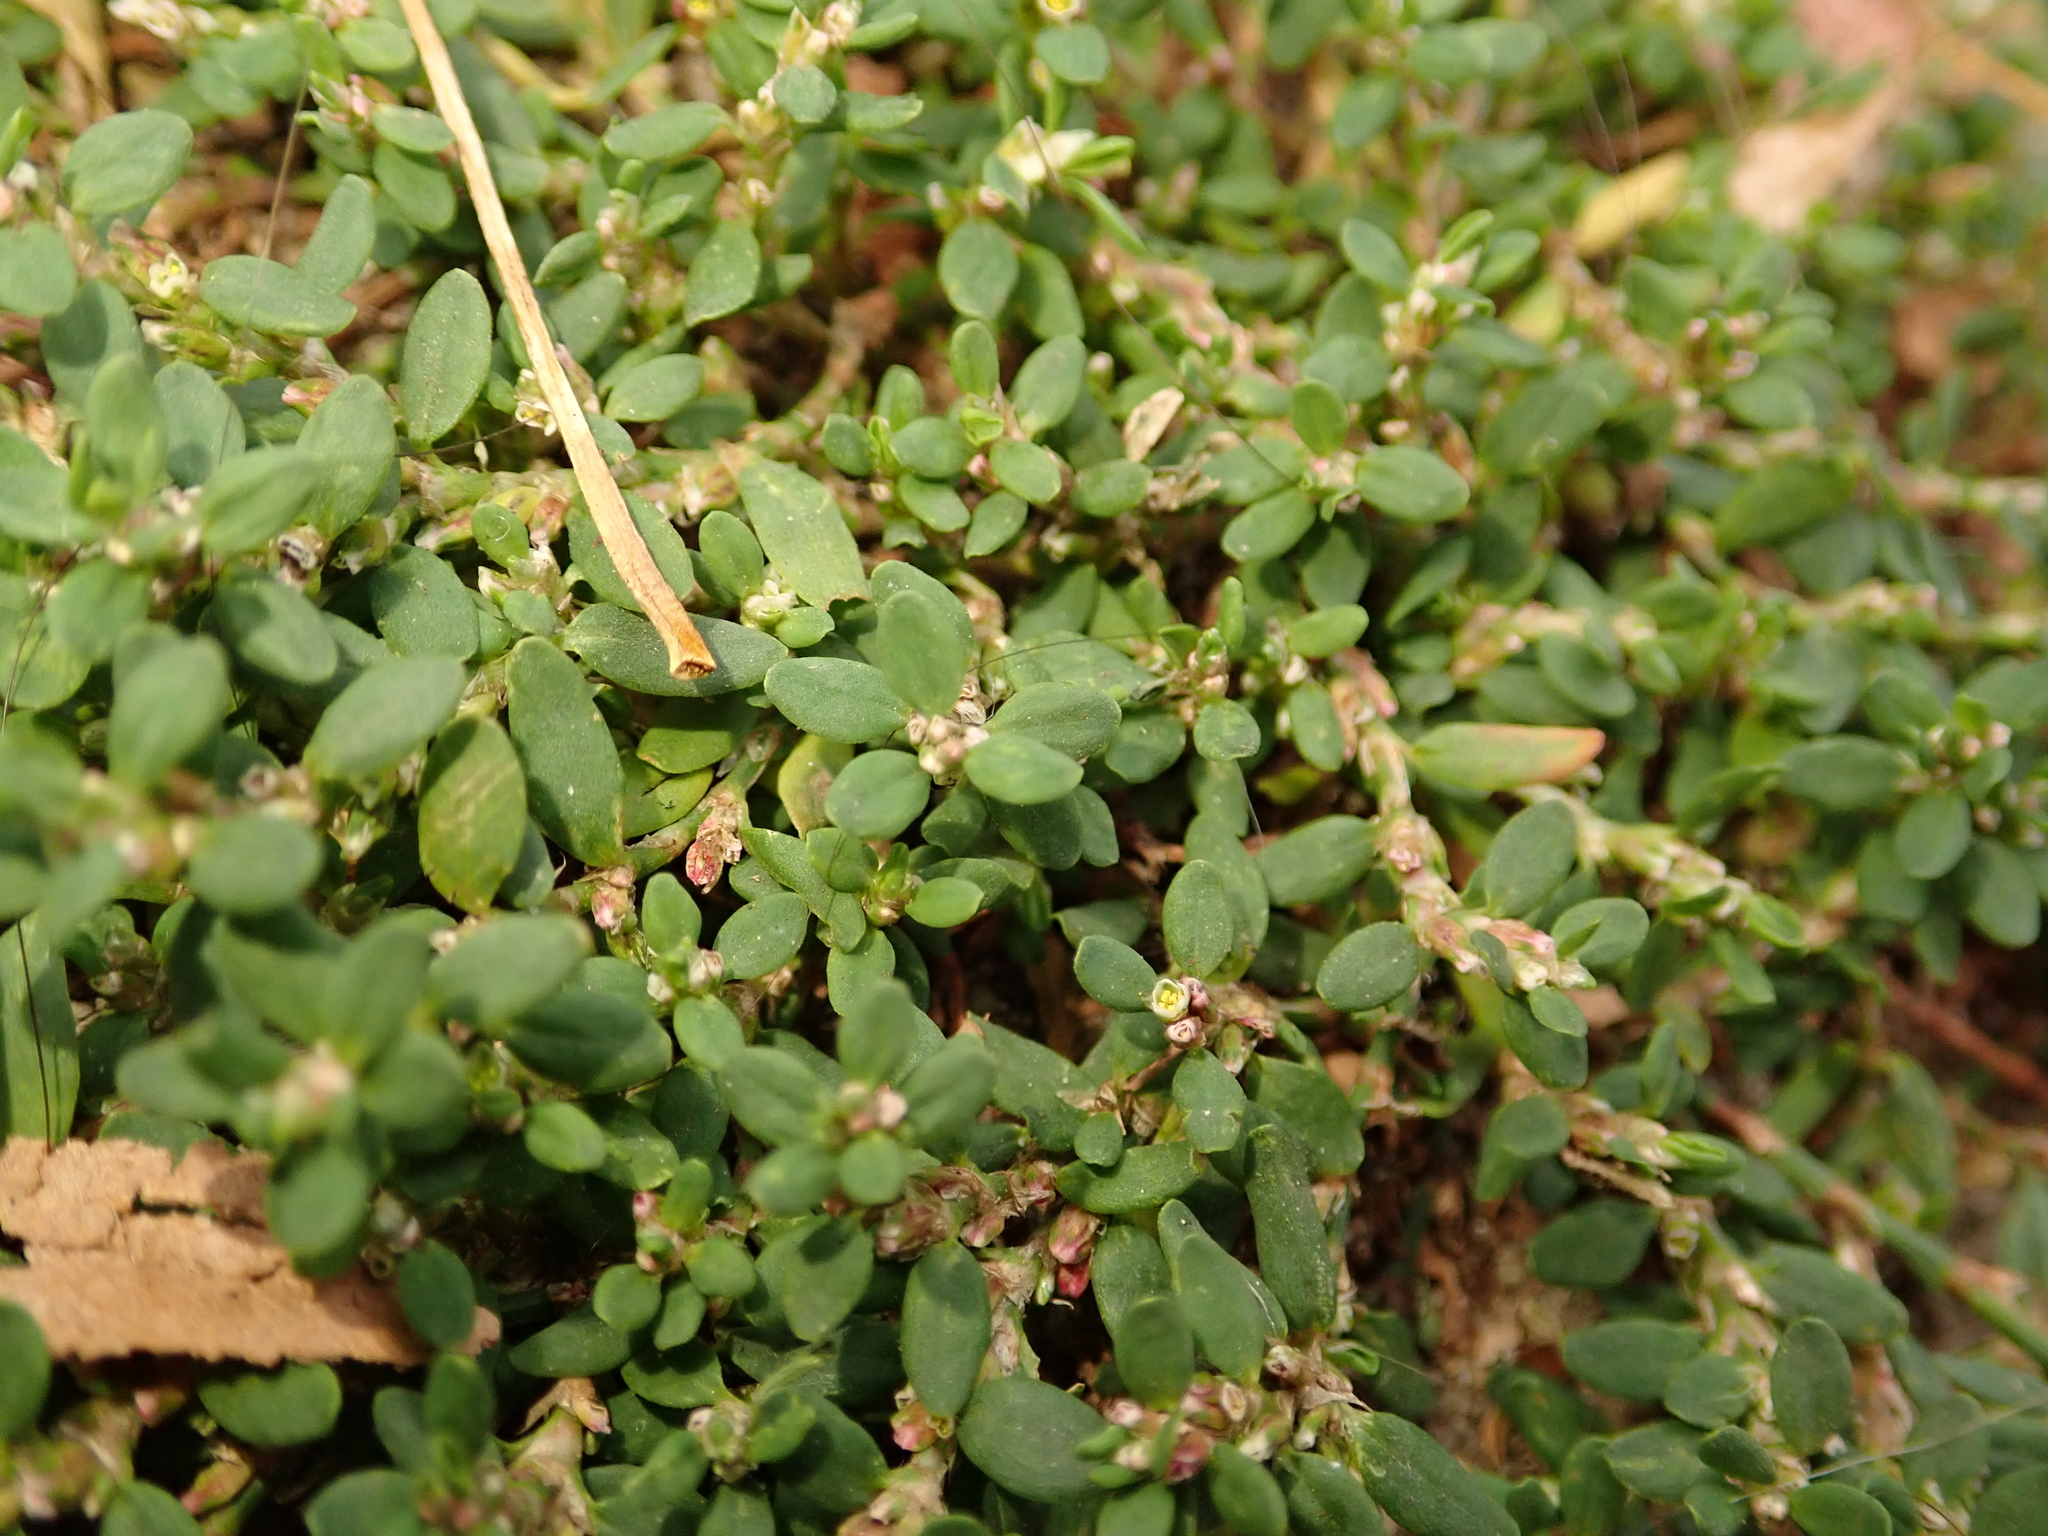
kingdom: Plantae
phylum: Tracheophyta
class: Magnoliopsida
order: Caryophyllales
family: Polygonaceae
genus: Polygonum
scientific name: Polygonum aviculare
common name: Prostrate knotweed
